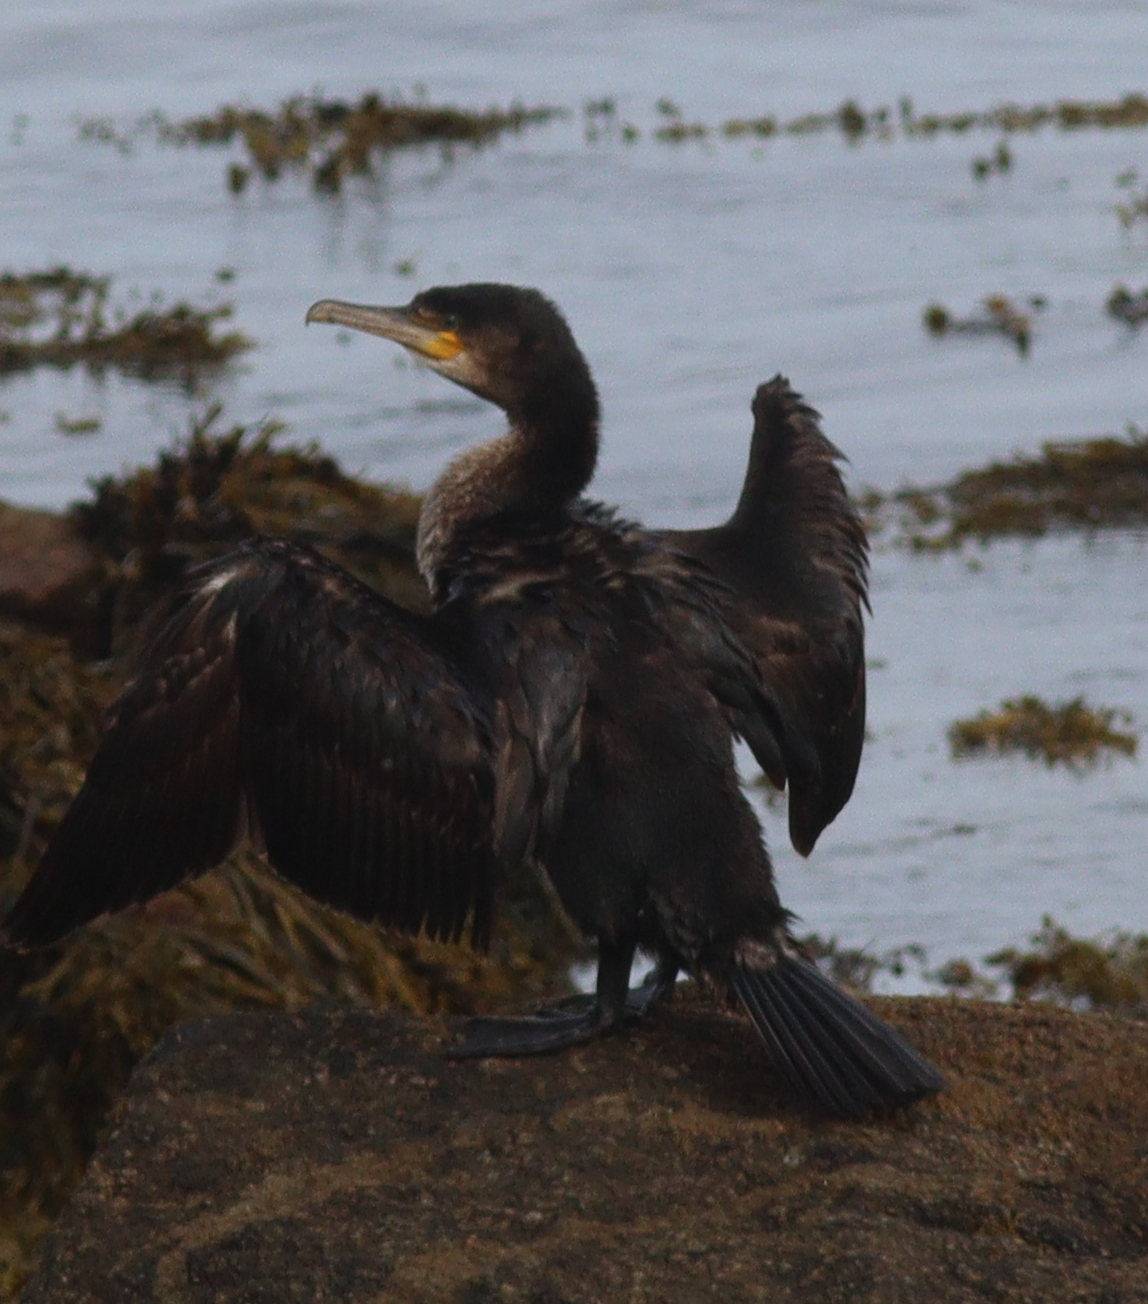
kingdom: Animalia
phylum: Chordata
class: Aves
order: Suliformes
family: Phalacrocoracidae
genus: Phalacrocorax
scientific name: Phalacrocorax carbo
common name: Great cormorant
